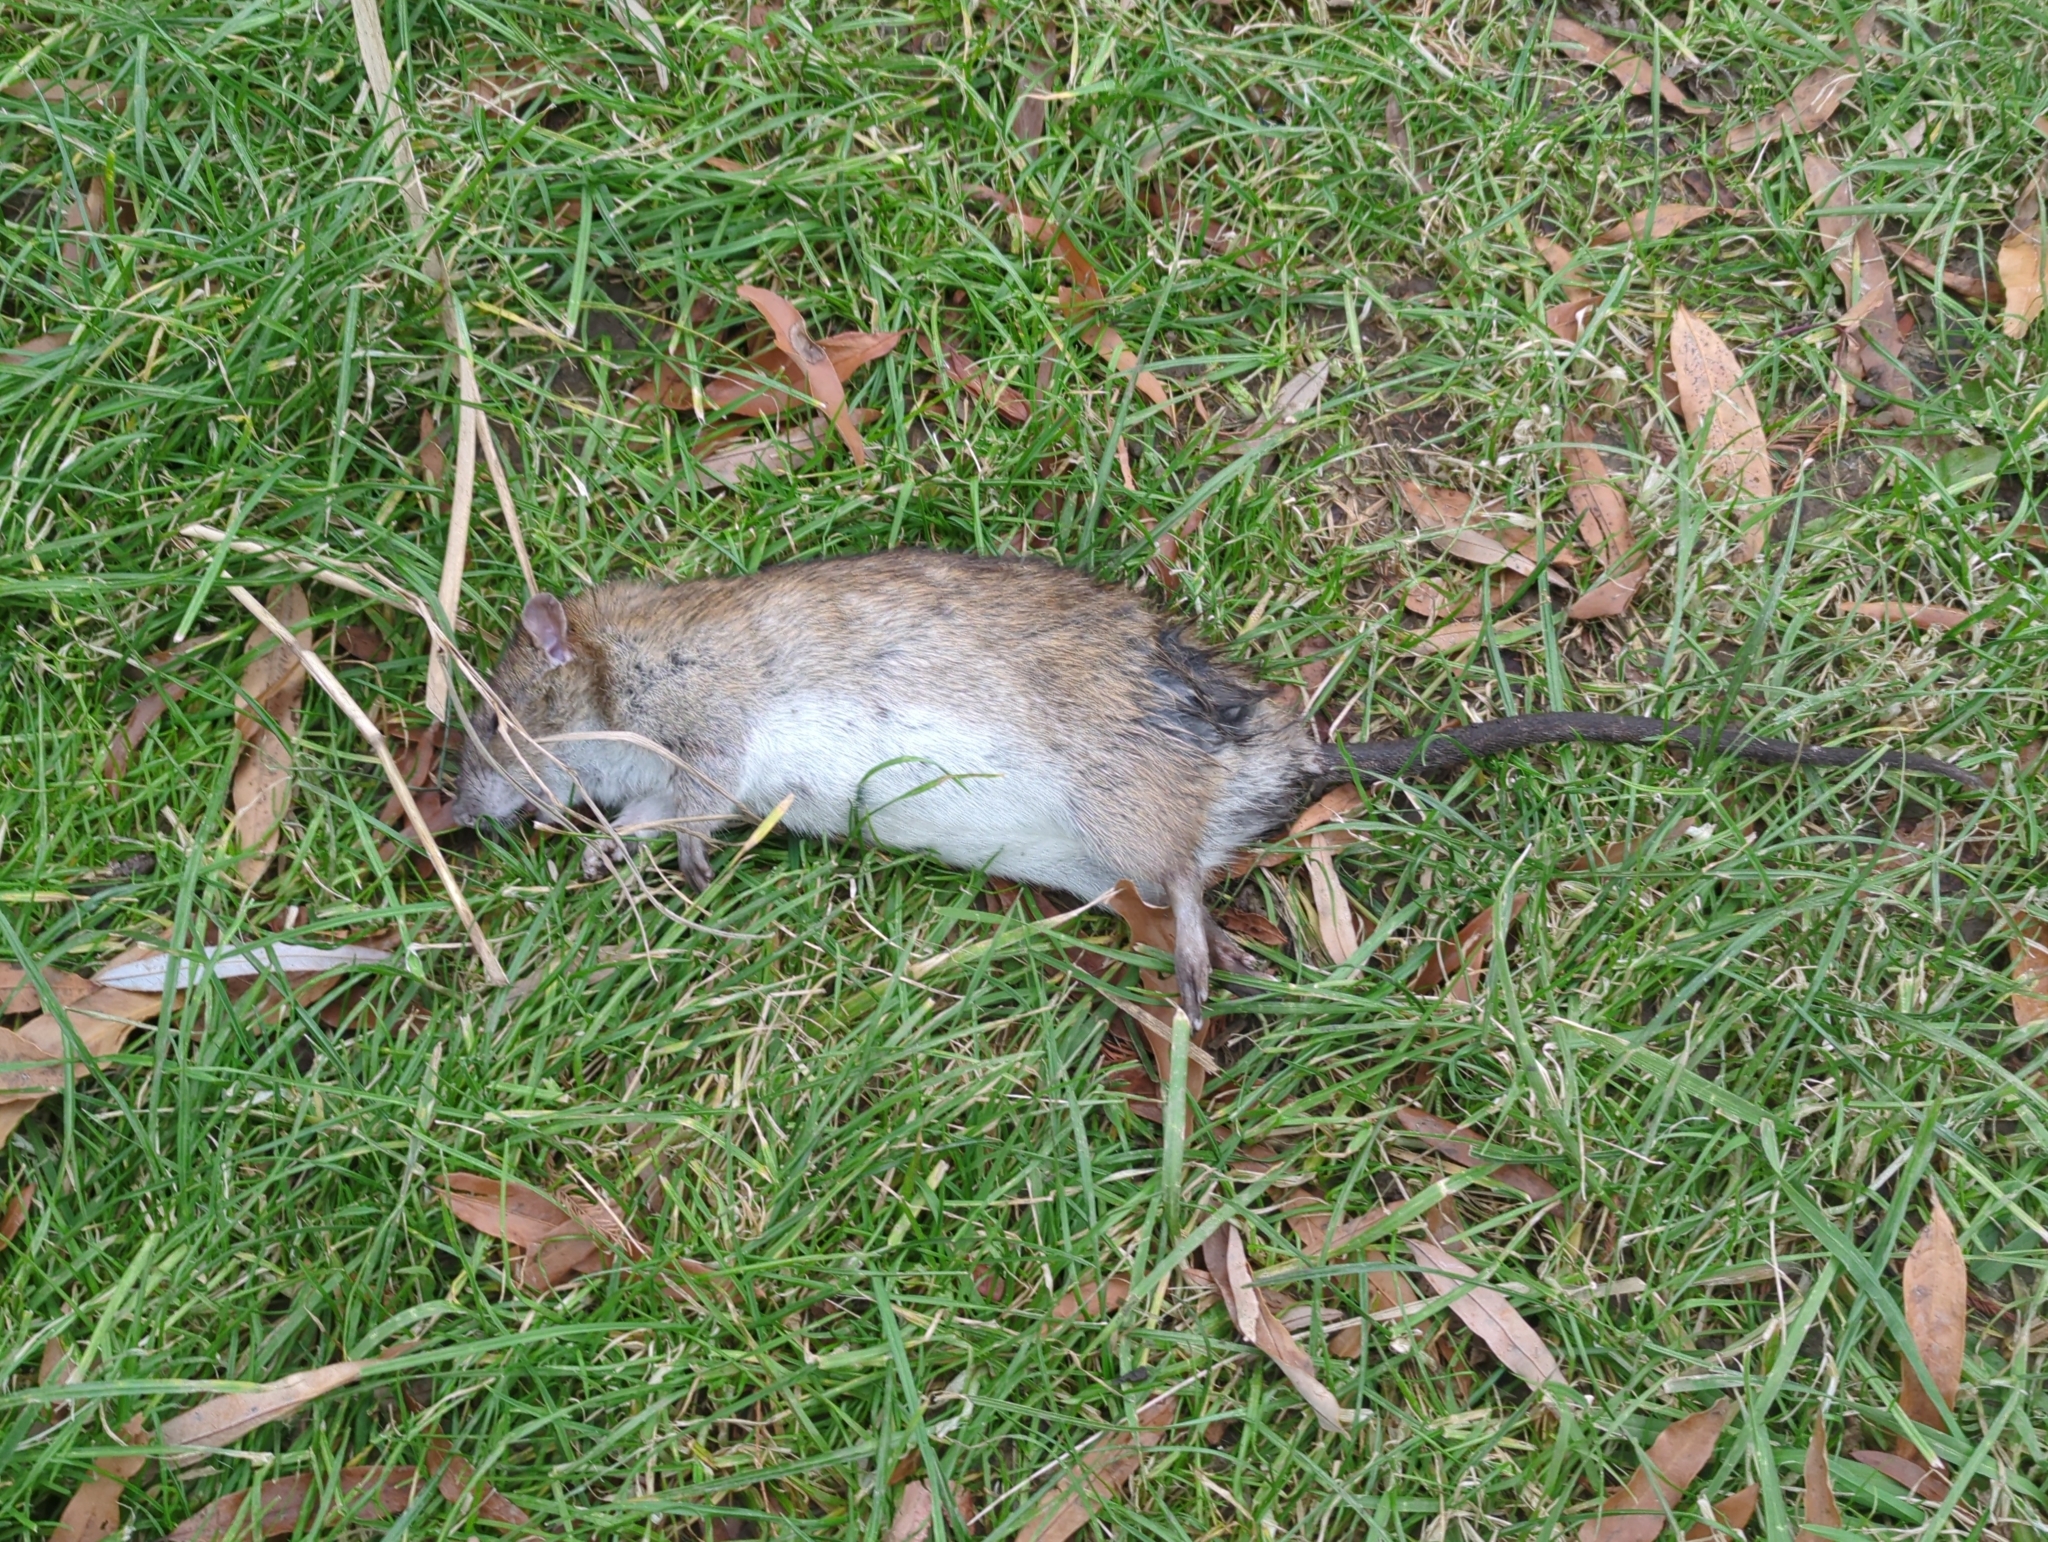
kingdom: Animalia
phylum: Chordata
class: Mammalia
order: Rodentia
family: Muridae
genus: Rattus
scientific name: Rattus norvegicus
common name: Brown rat
